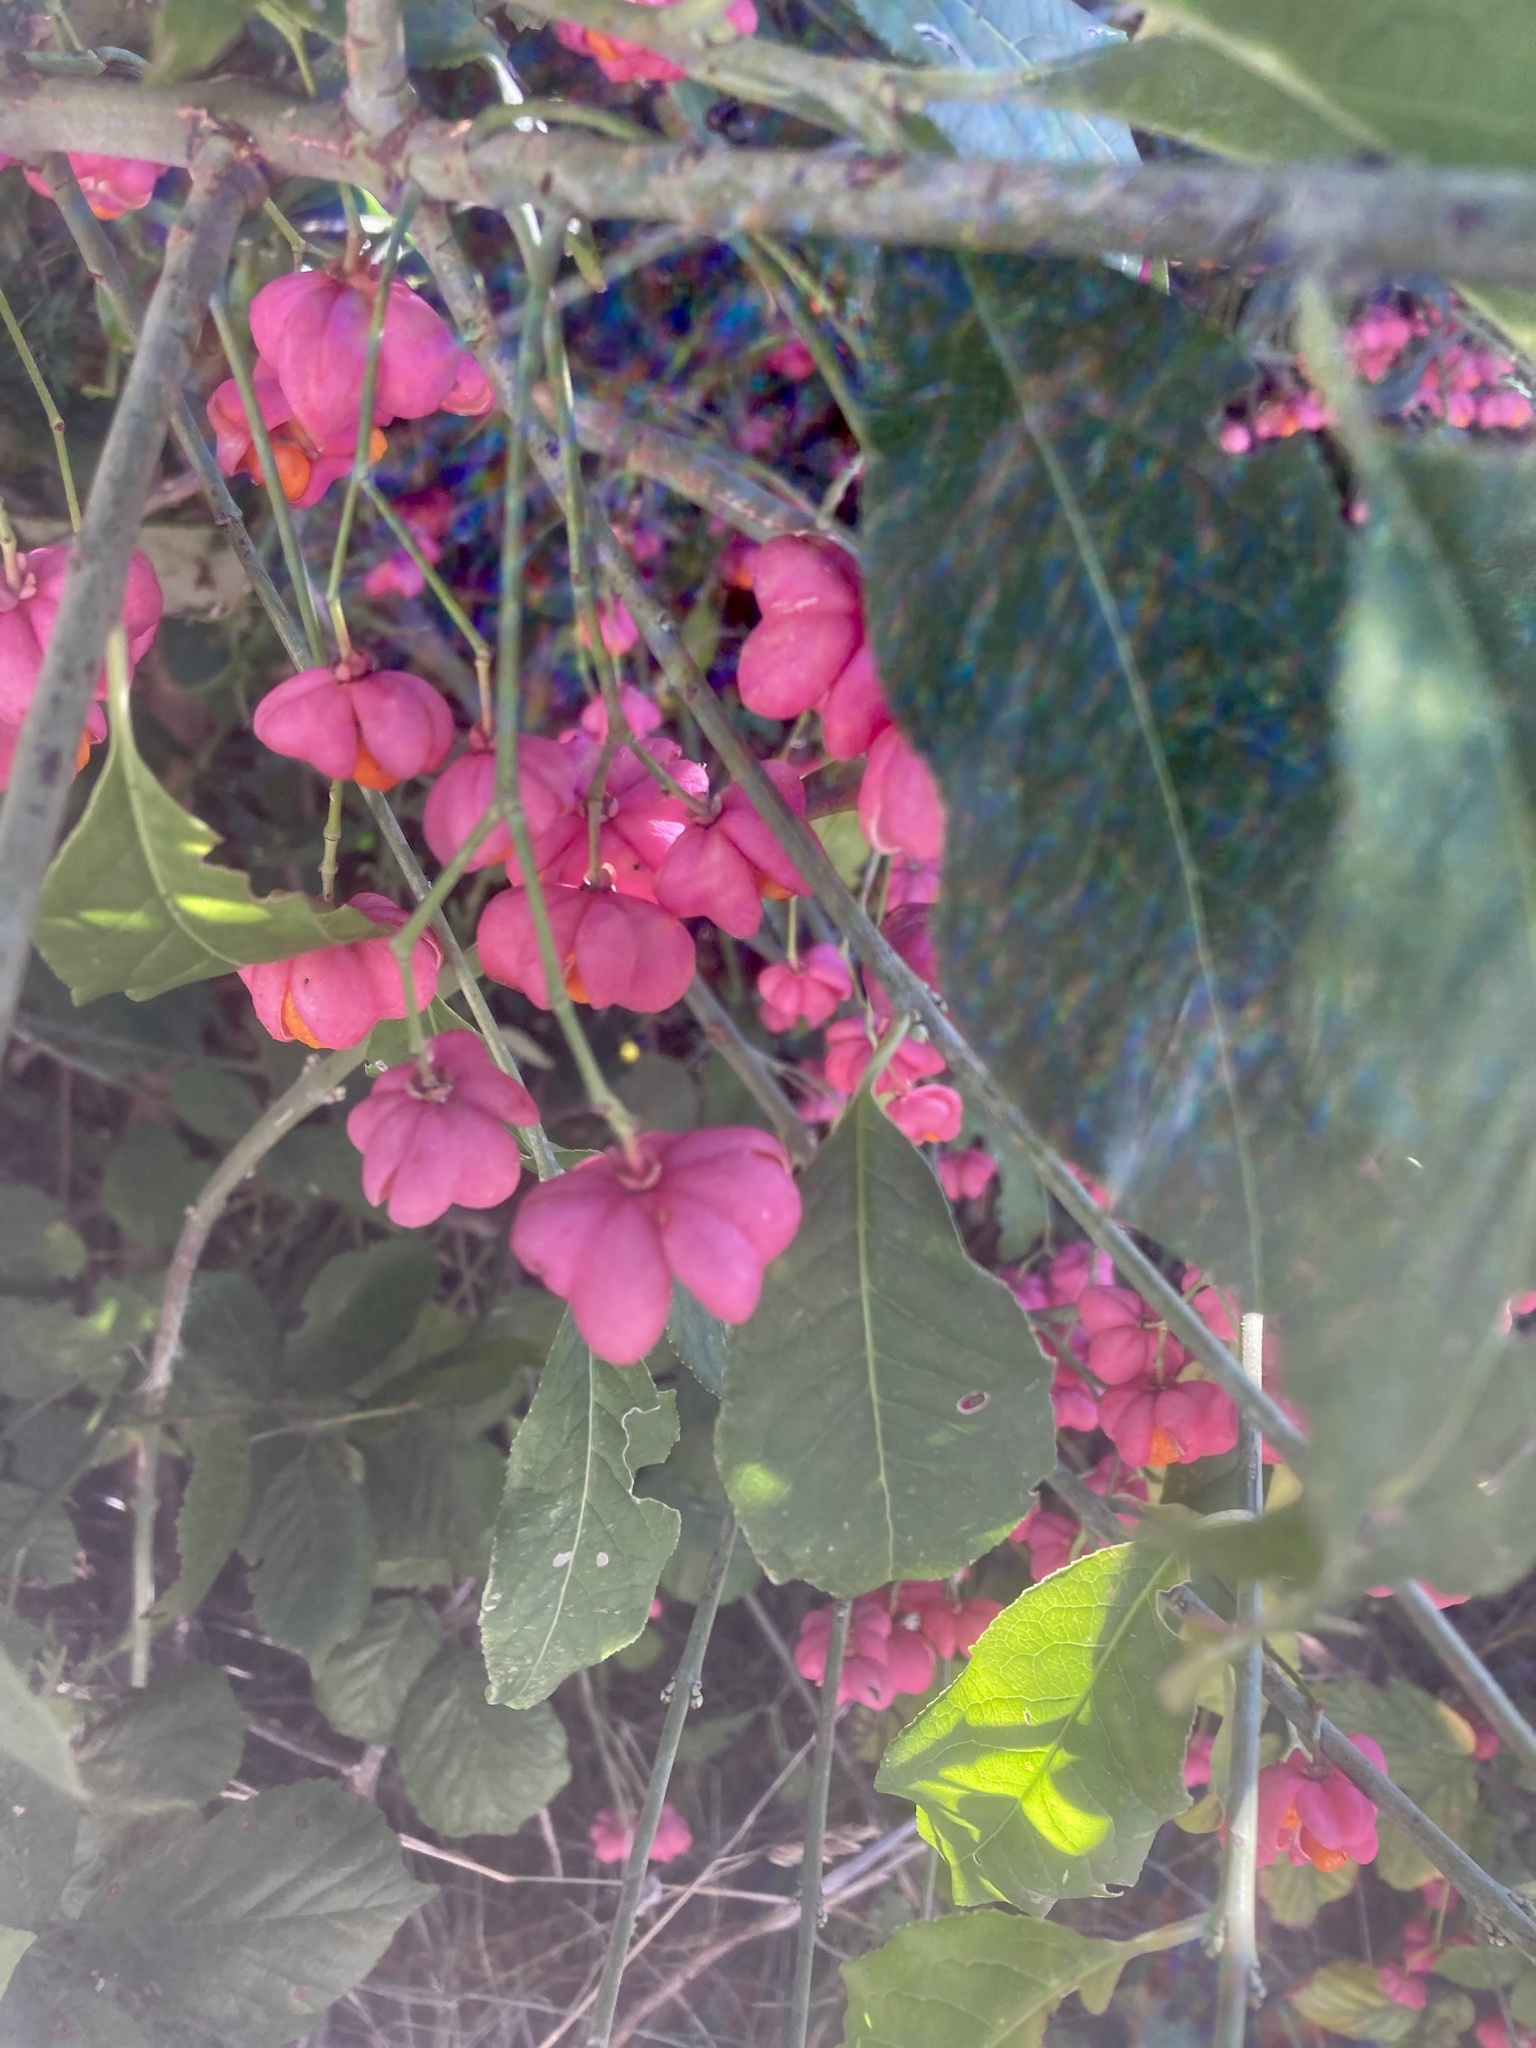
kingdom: Plantae
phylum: Tracheophyta
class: Magnoliopsida
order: Celastrales
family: Celastraceae
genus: Euonymus
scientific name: Euonymus europaeus
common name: Spindle
